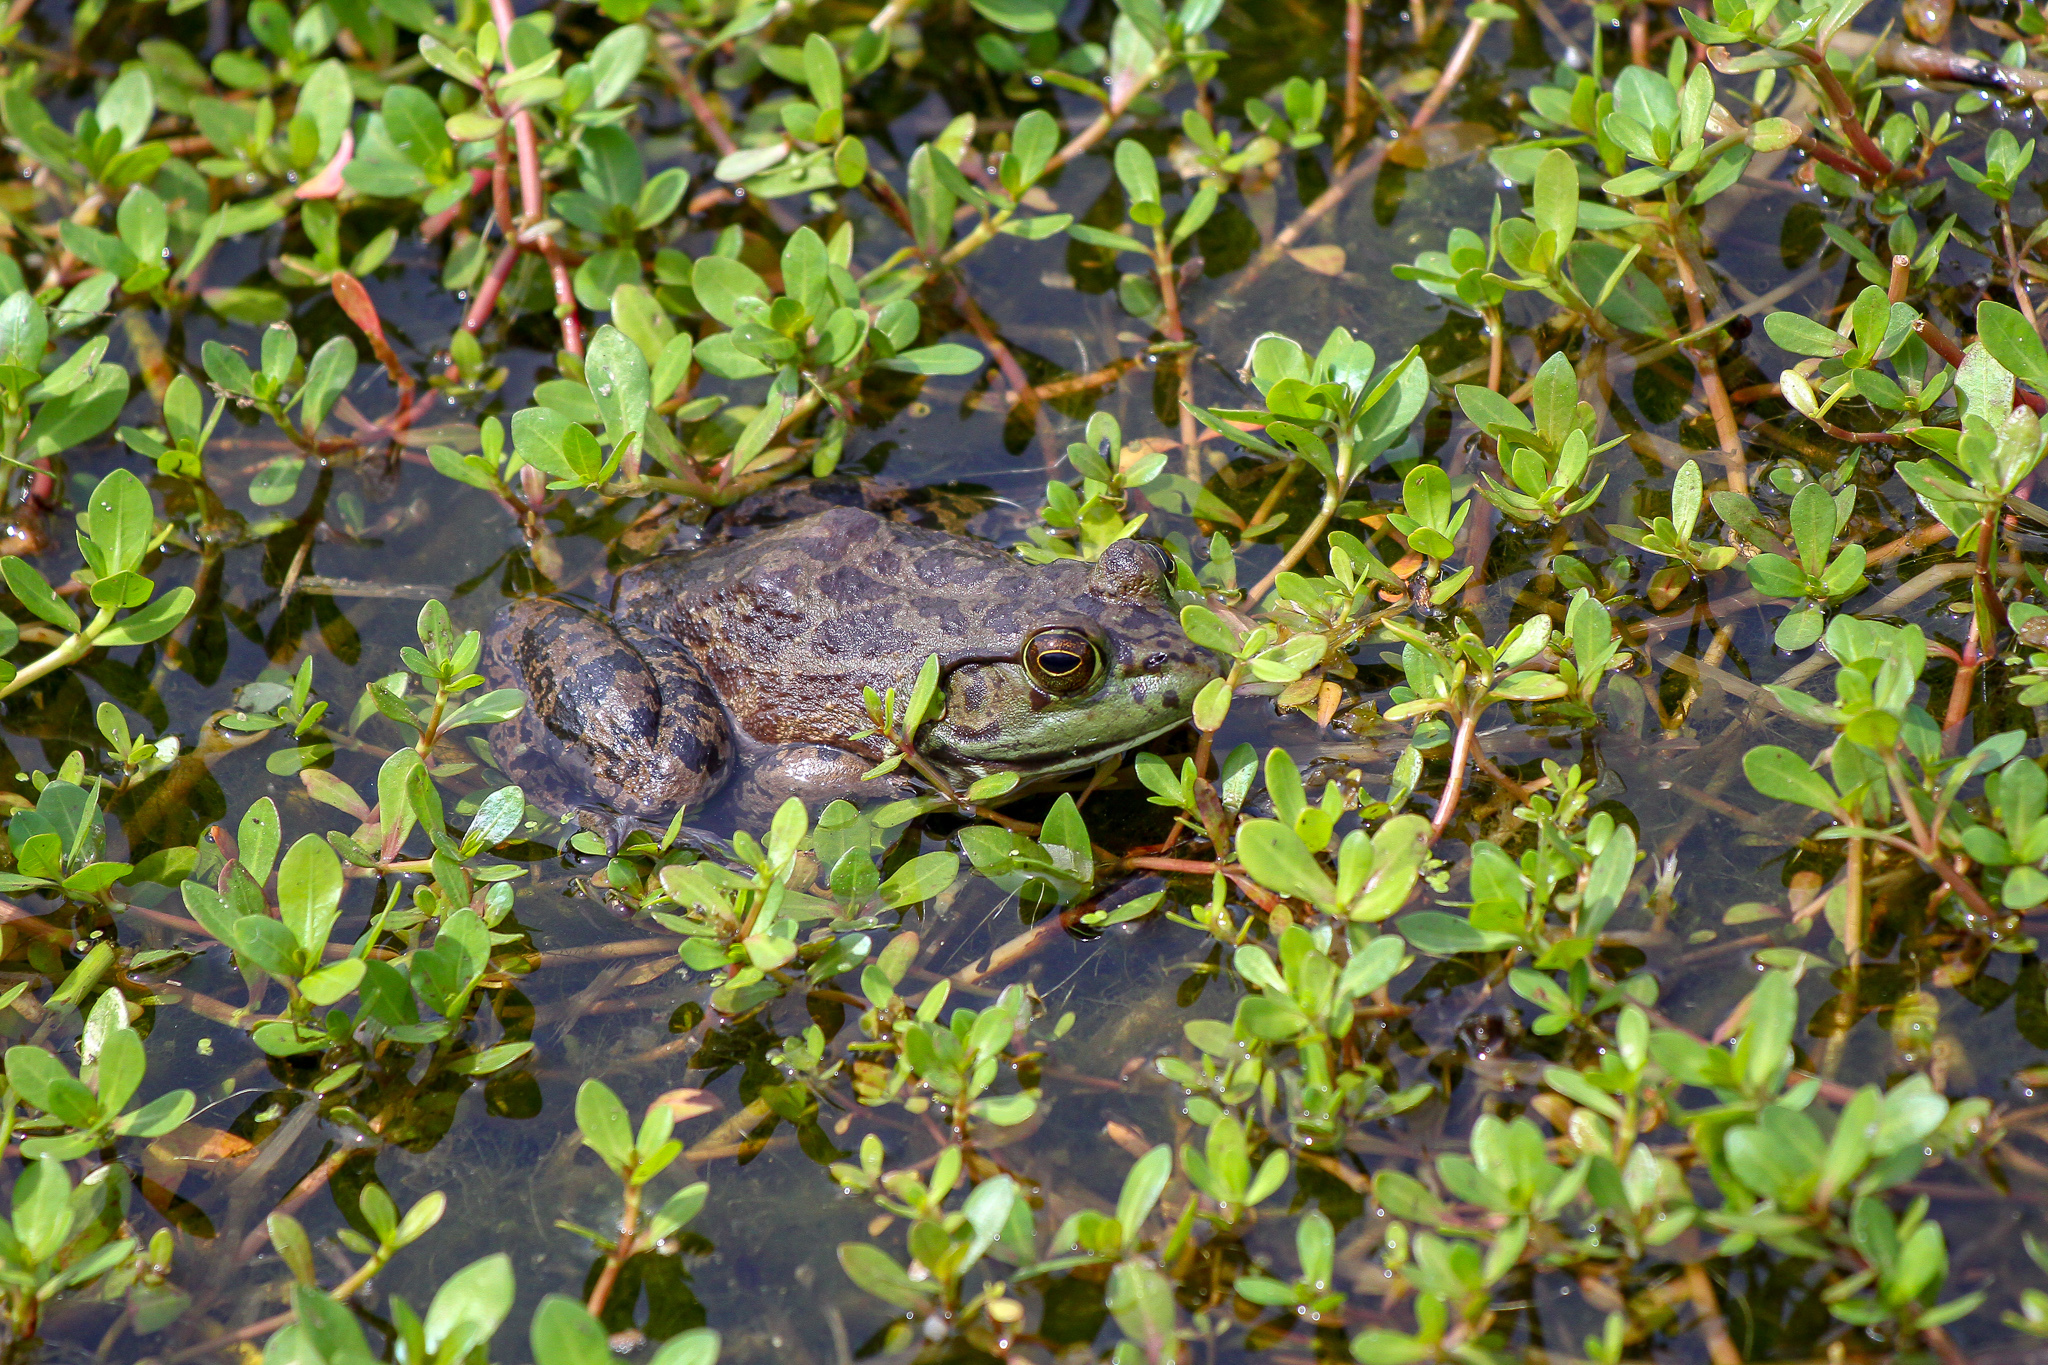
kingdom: Animalia
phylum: Chordata
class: Amphibia
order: Anura
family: Ranidae
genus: Lithobates
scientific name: Lithobates catesbeianus
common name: American bullfrog
